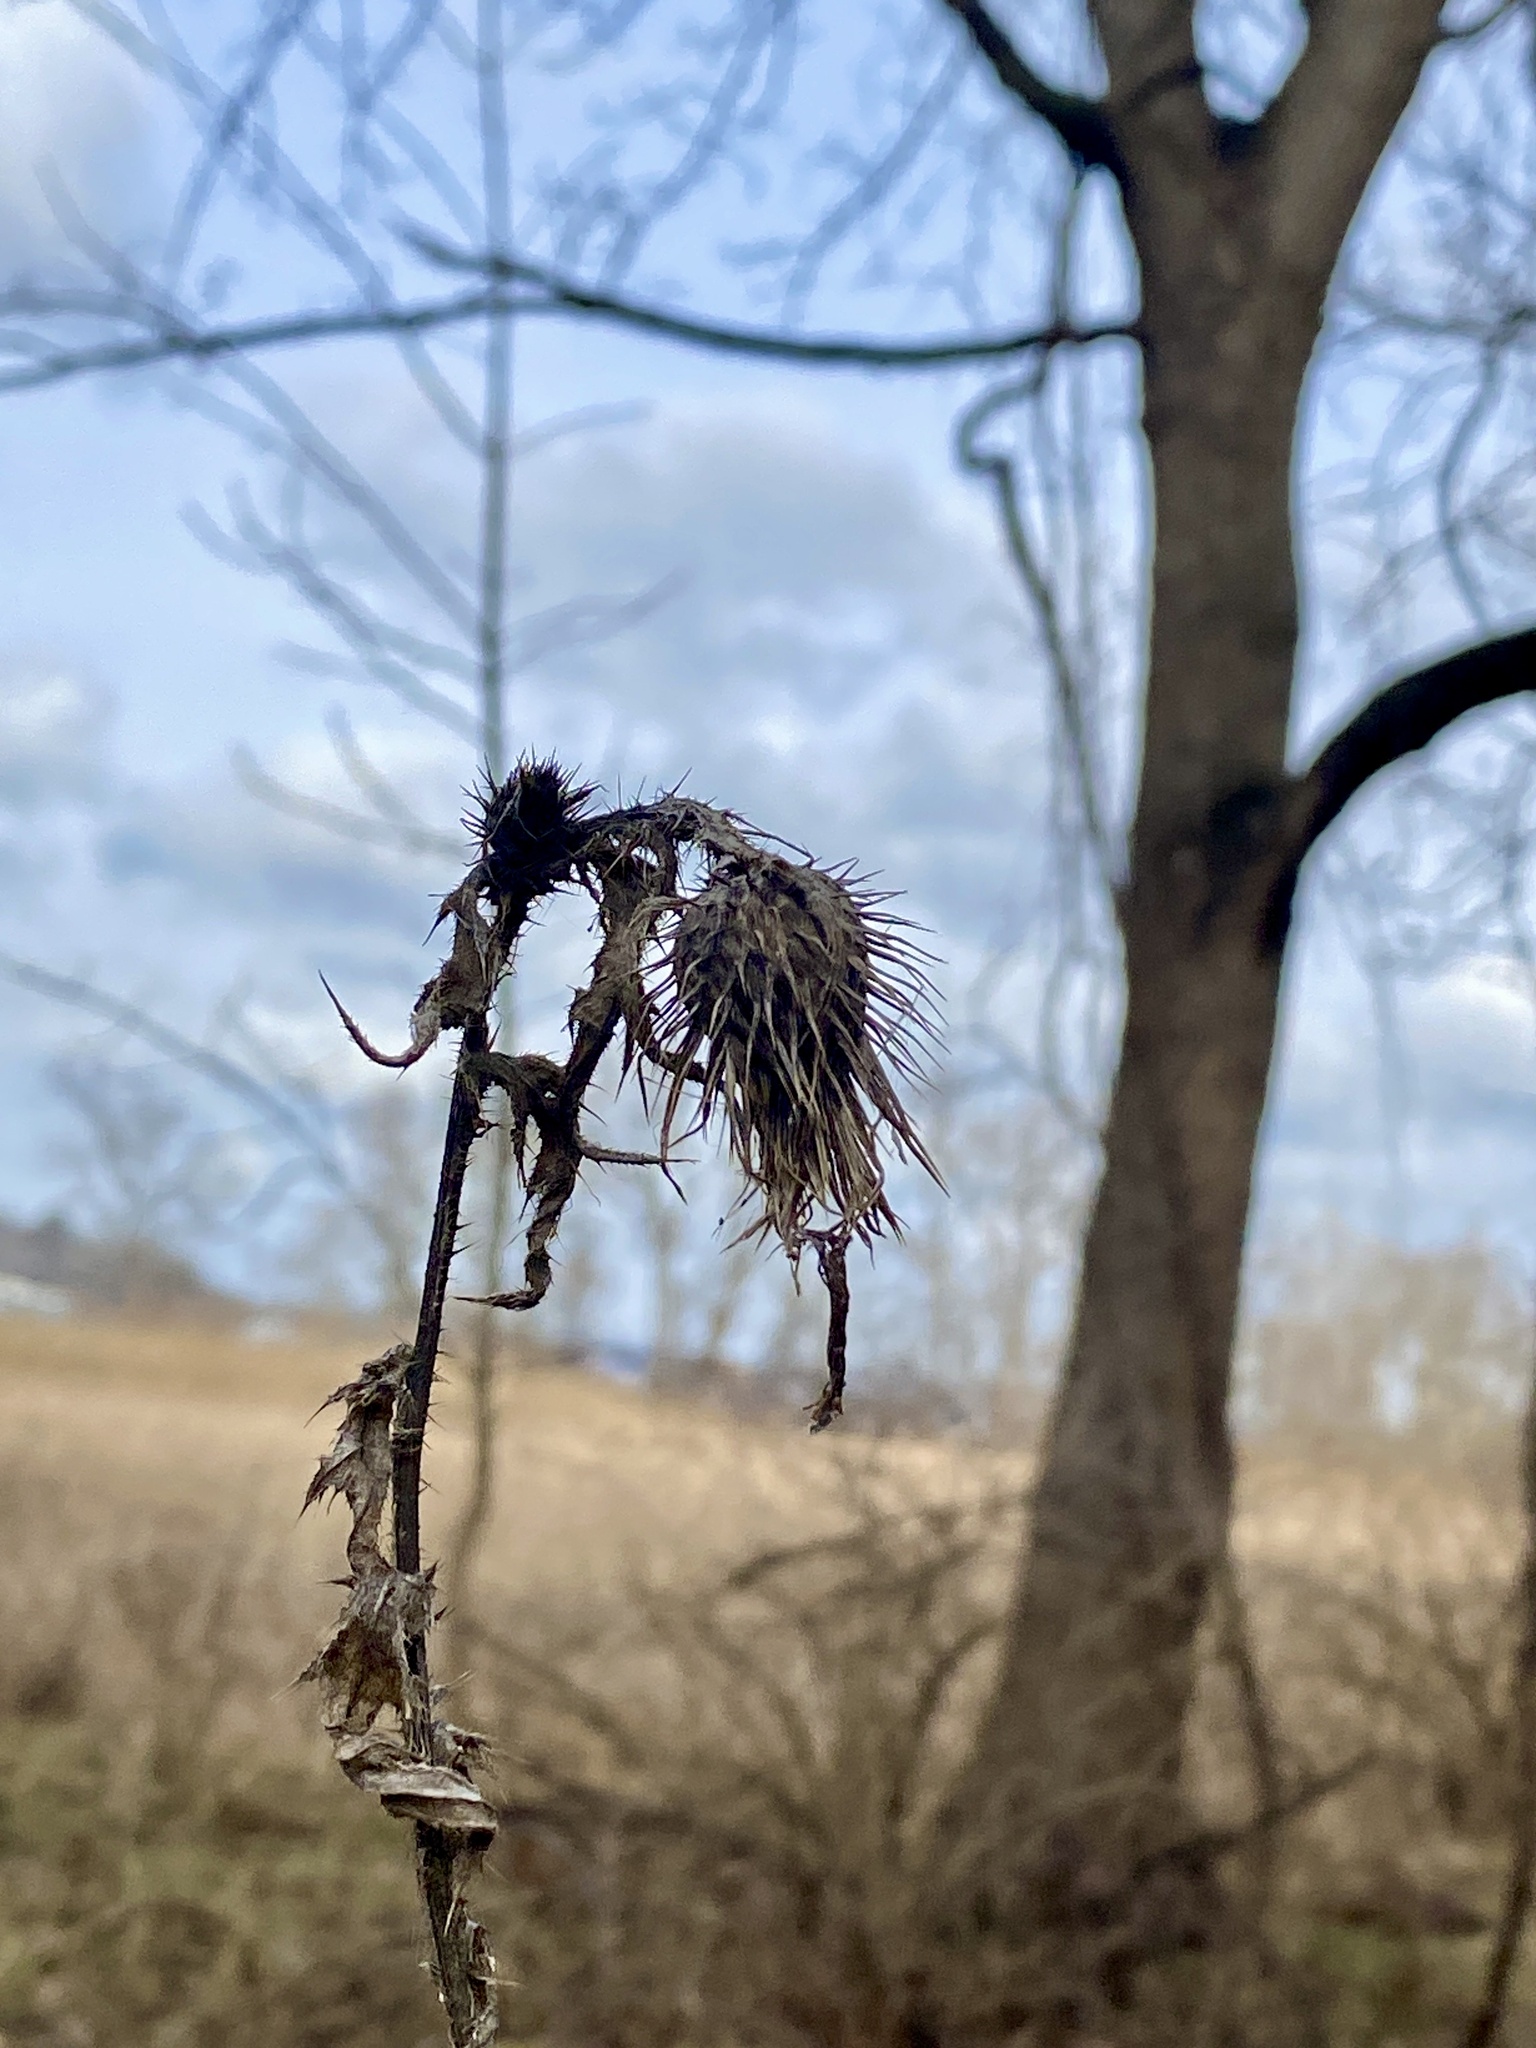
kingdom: Plantae
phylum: Tracheophyta
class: Magnoliopsida
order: Asterales
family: Asteraceae
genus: Cirsium
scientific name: Cirsium vulgare
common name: Bull thistle
